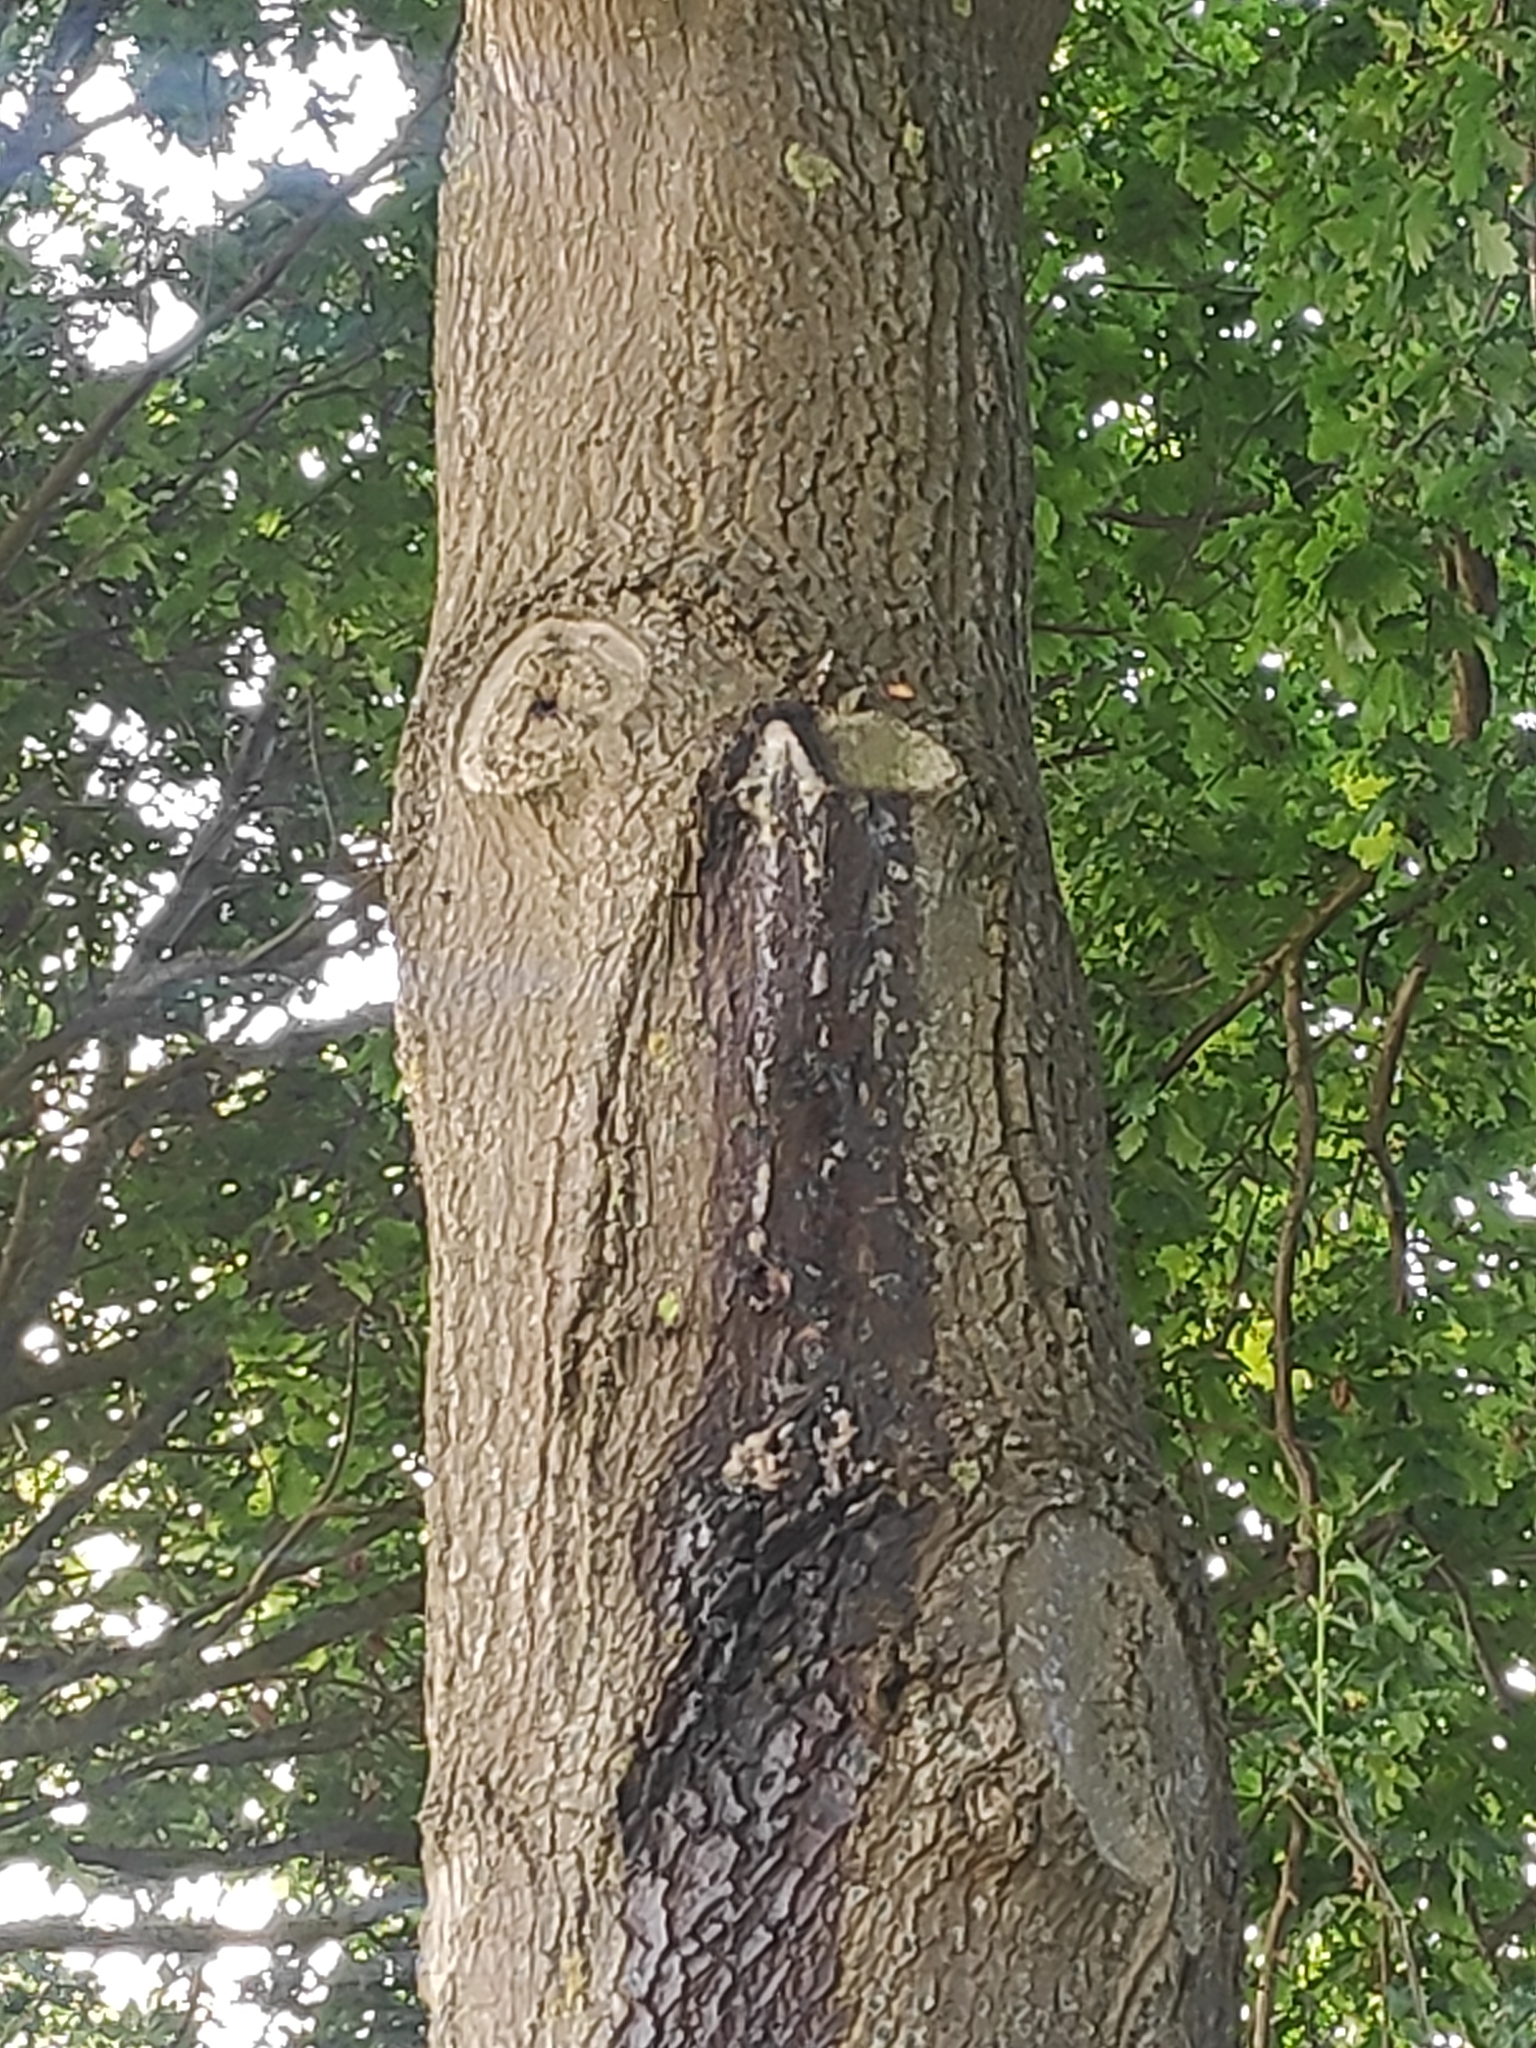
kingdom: Animalia
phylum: Arthropoda
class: Insecta
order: Hymenoptera
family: Vespidae
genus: Vespa
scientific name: Vespa crabro
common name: Hornet
